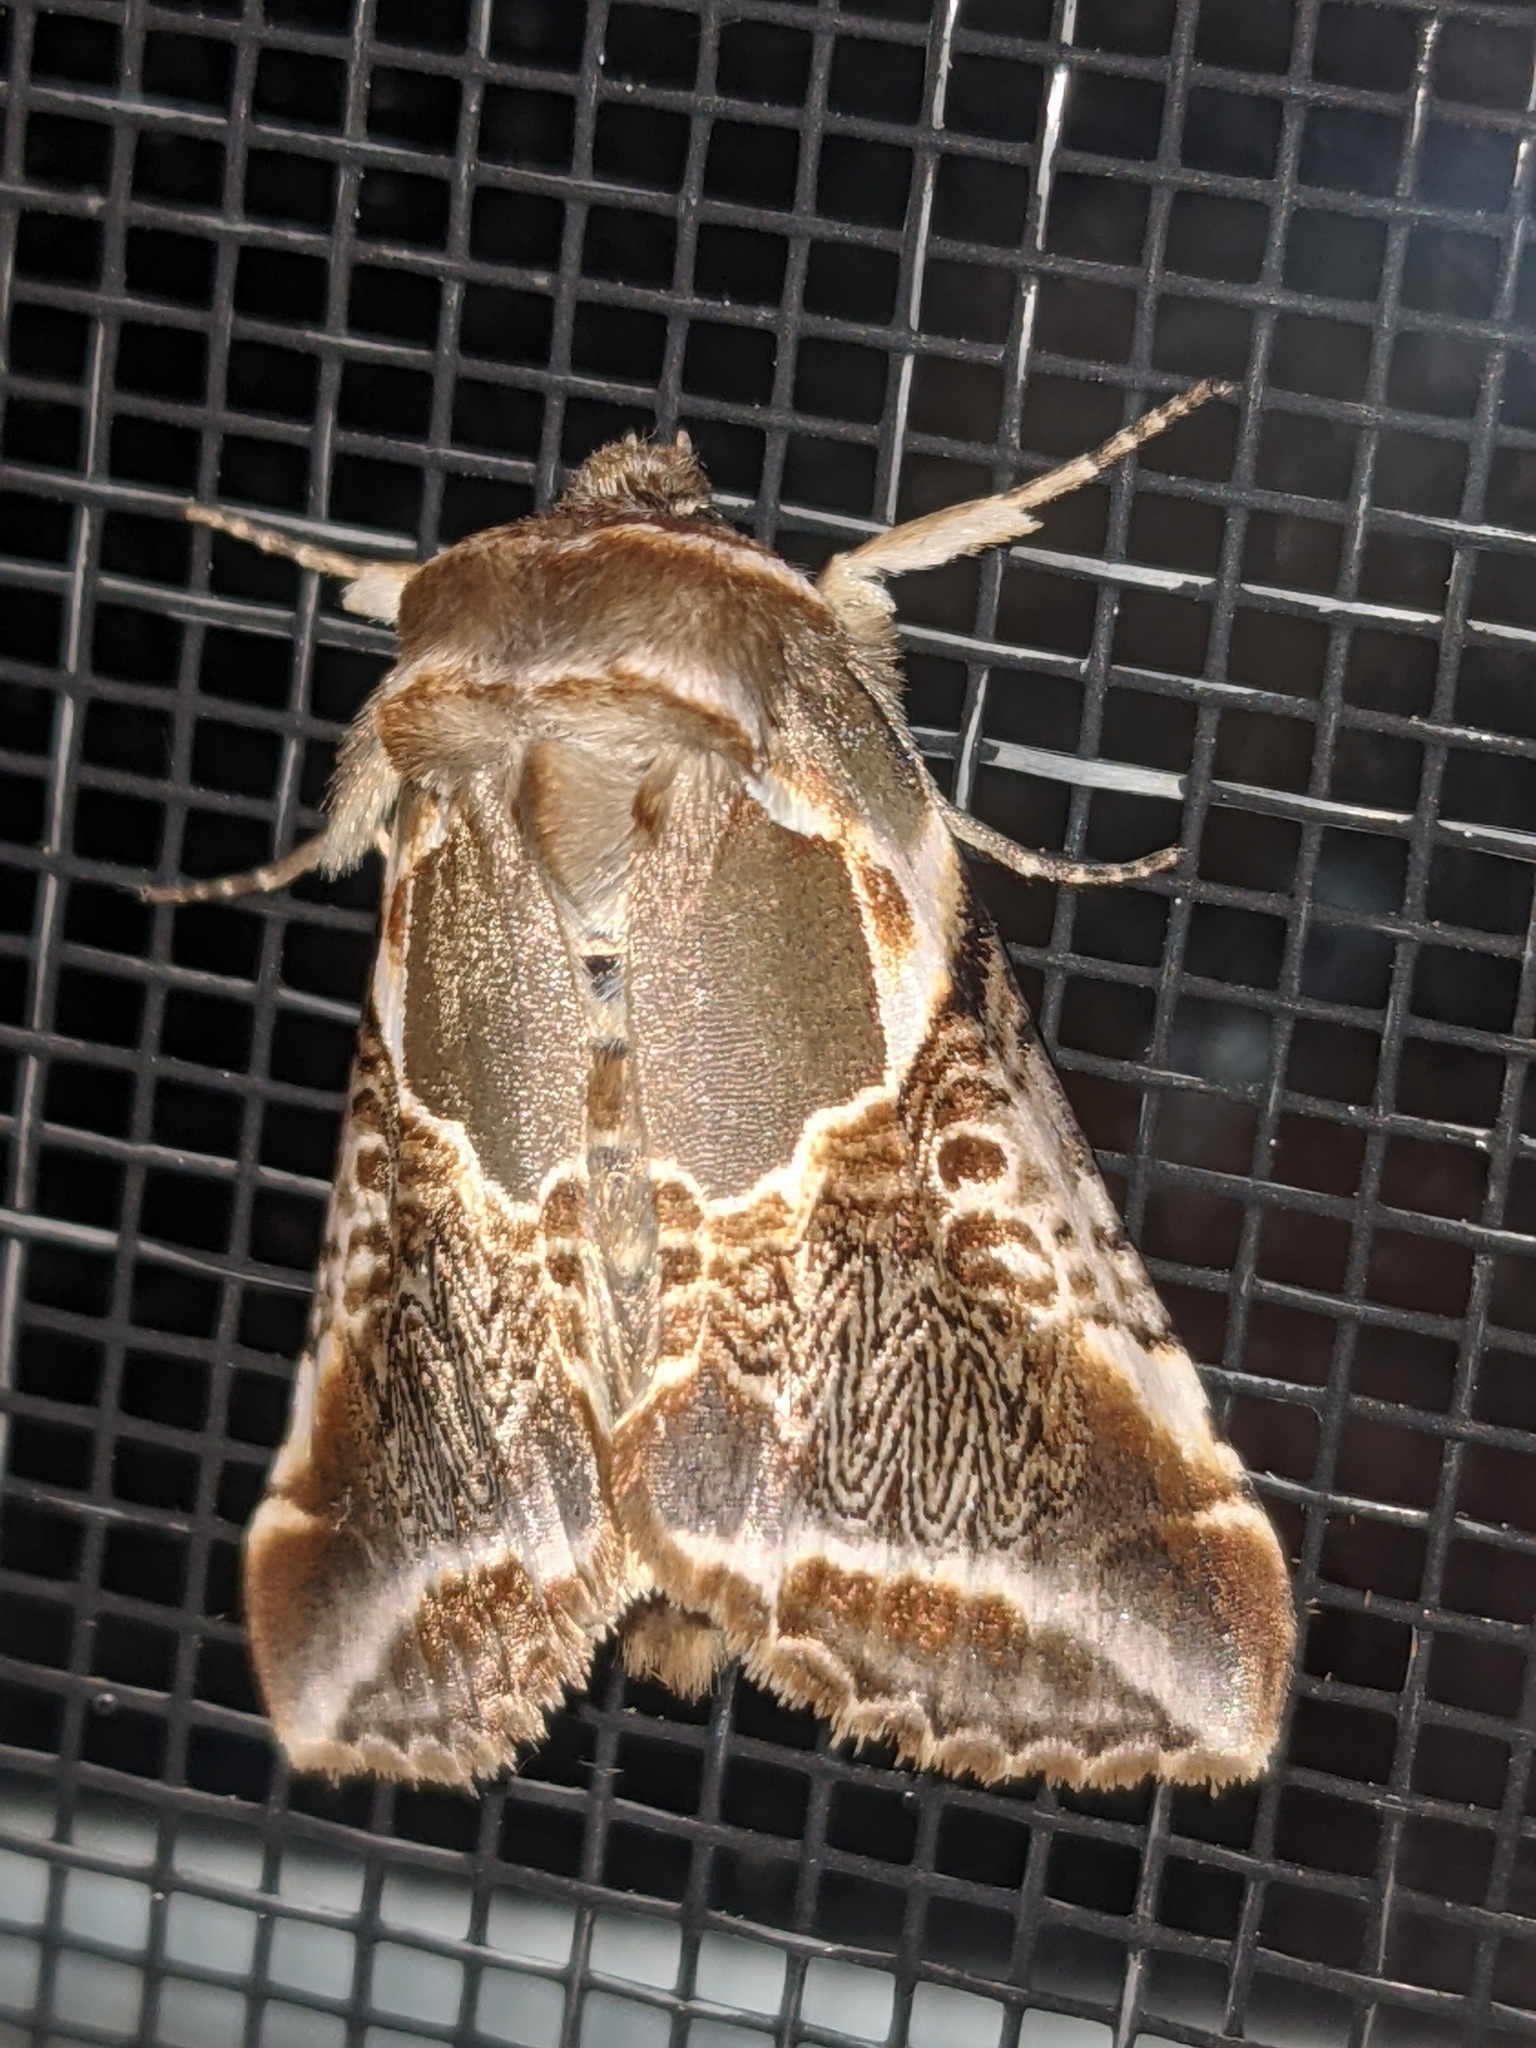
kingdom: Animalia
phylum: Arthropoda
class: Insecta
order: Lepidoptera
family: Drepanidae
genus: Habrosyne
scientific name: Habrosyne scripta
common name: Lettered habrosyne moth
